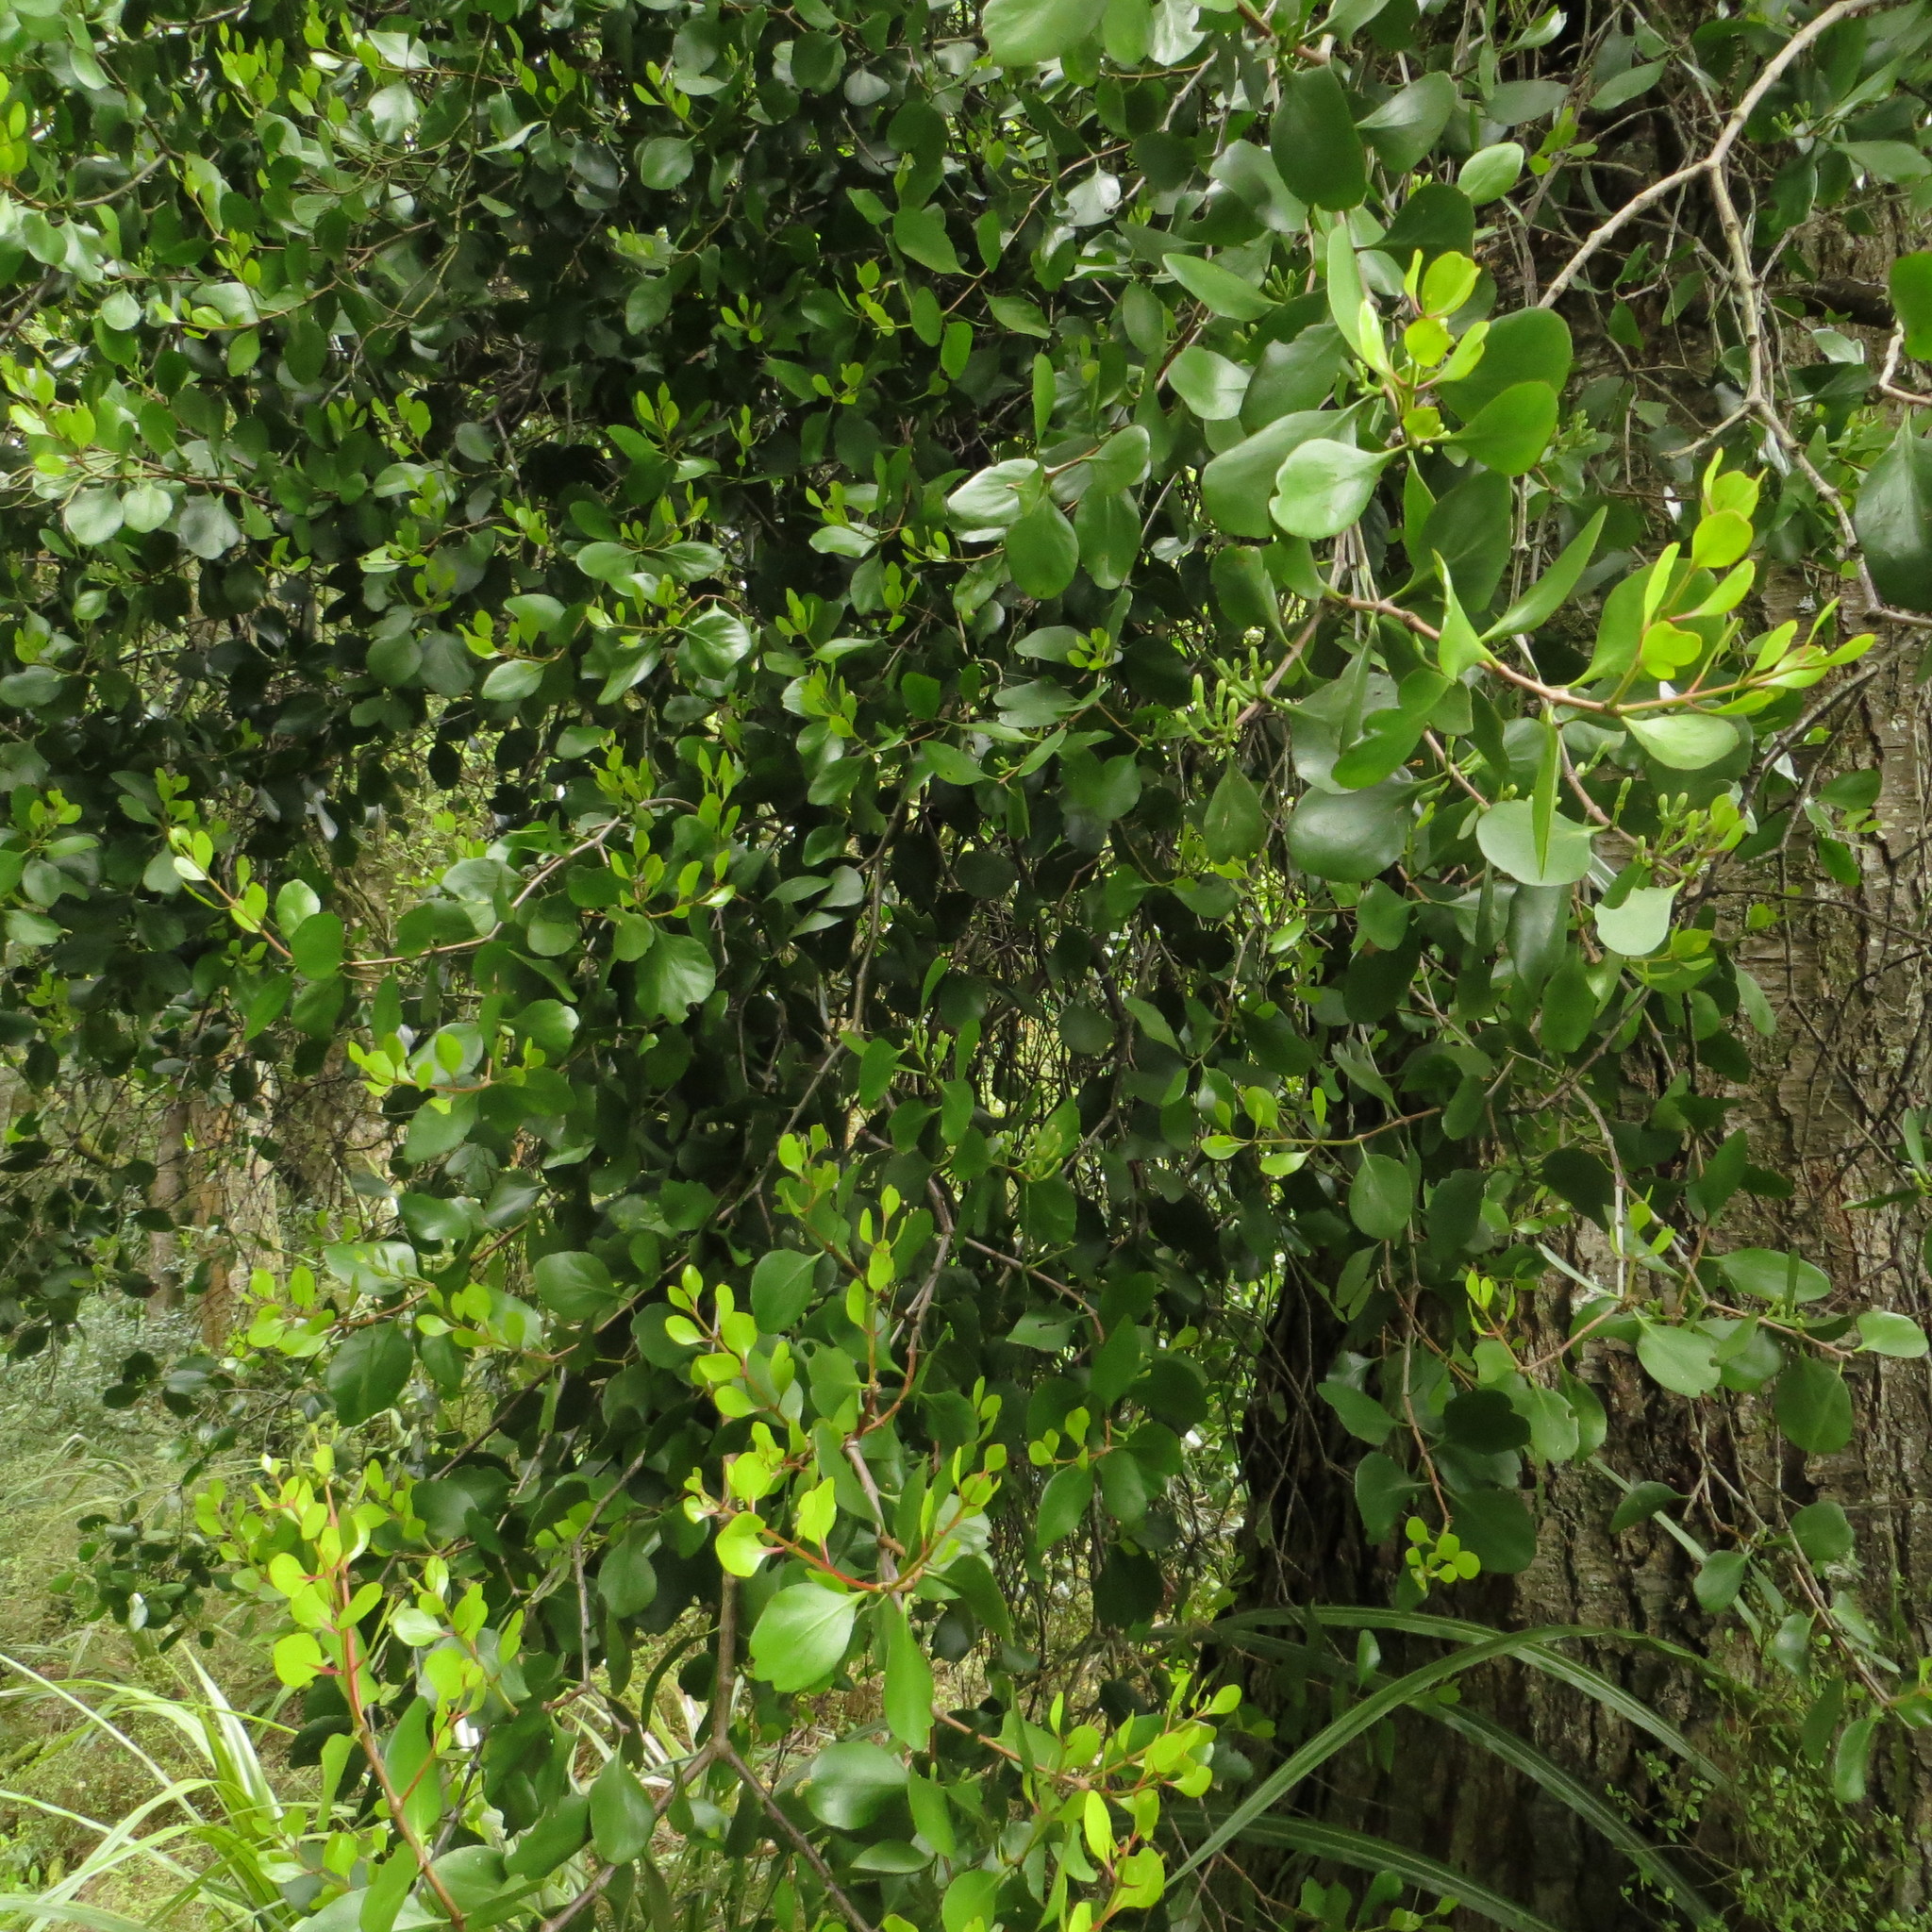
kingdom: Plantae
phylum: Tracheophyta
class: Magnoliopsida
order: Santalales
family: Loranthaceae
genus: Peraxilla
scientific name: Peraxilla colensoi
